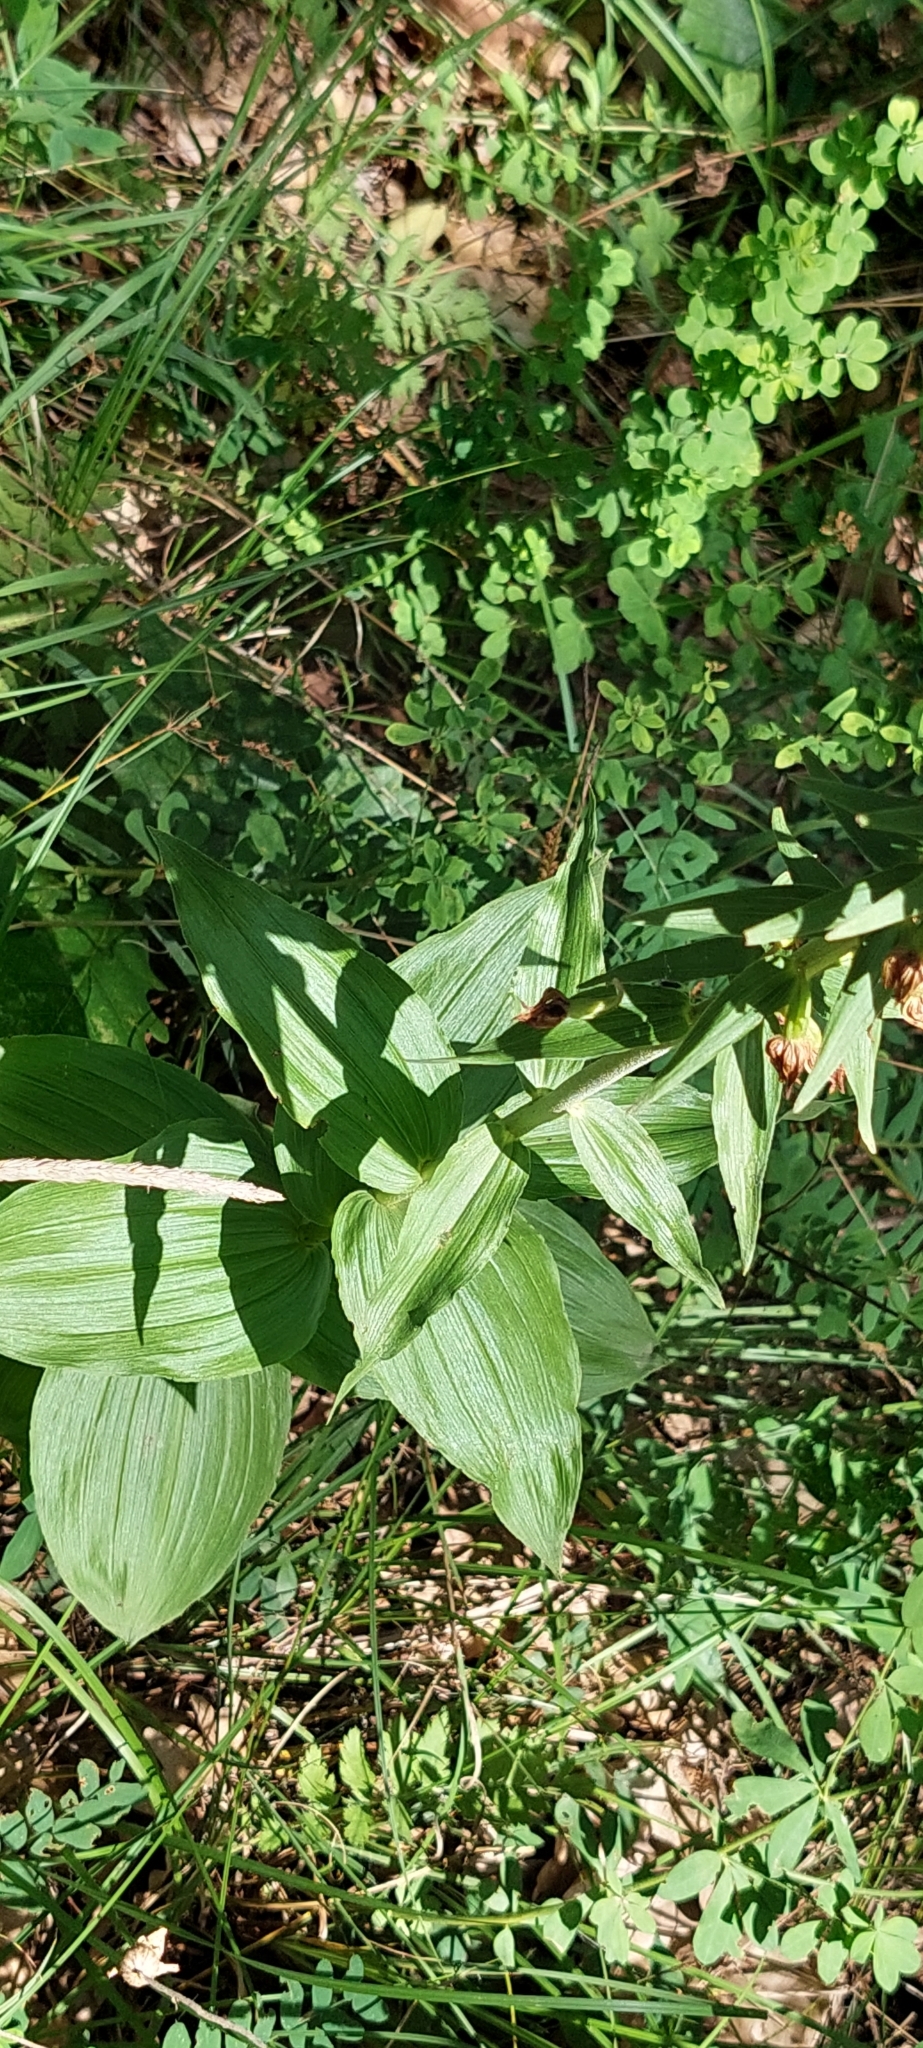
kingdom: Plantae
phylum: Tracheophyta
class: Liliopsida
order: Asparagales
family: Orchidaceae
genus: Epipactis
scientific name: Epipactis helleborine
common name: Broad-leaved helleborine
